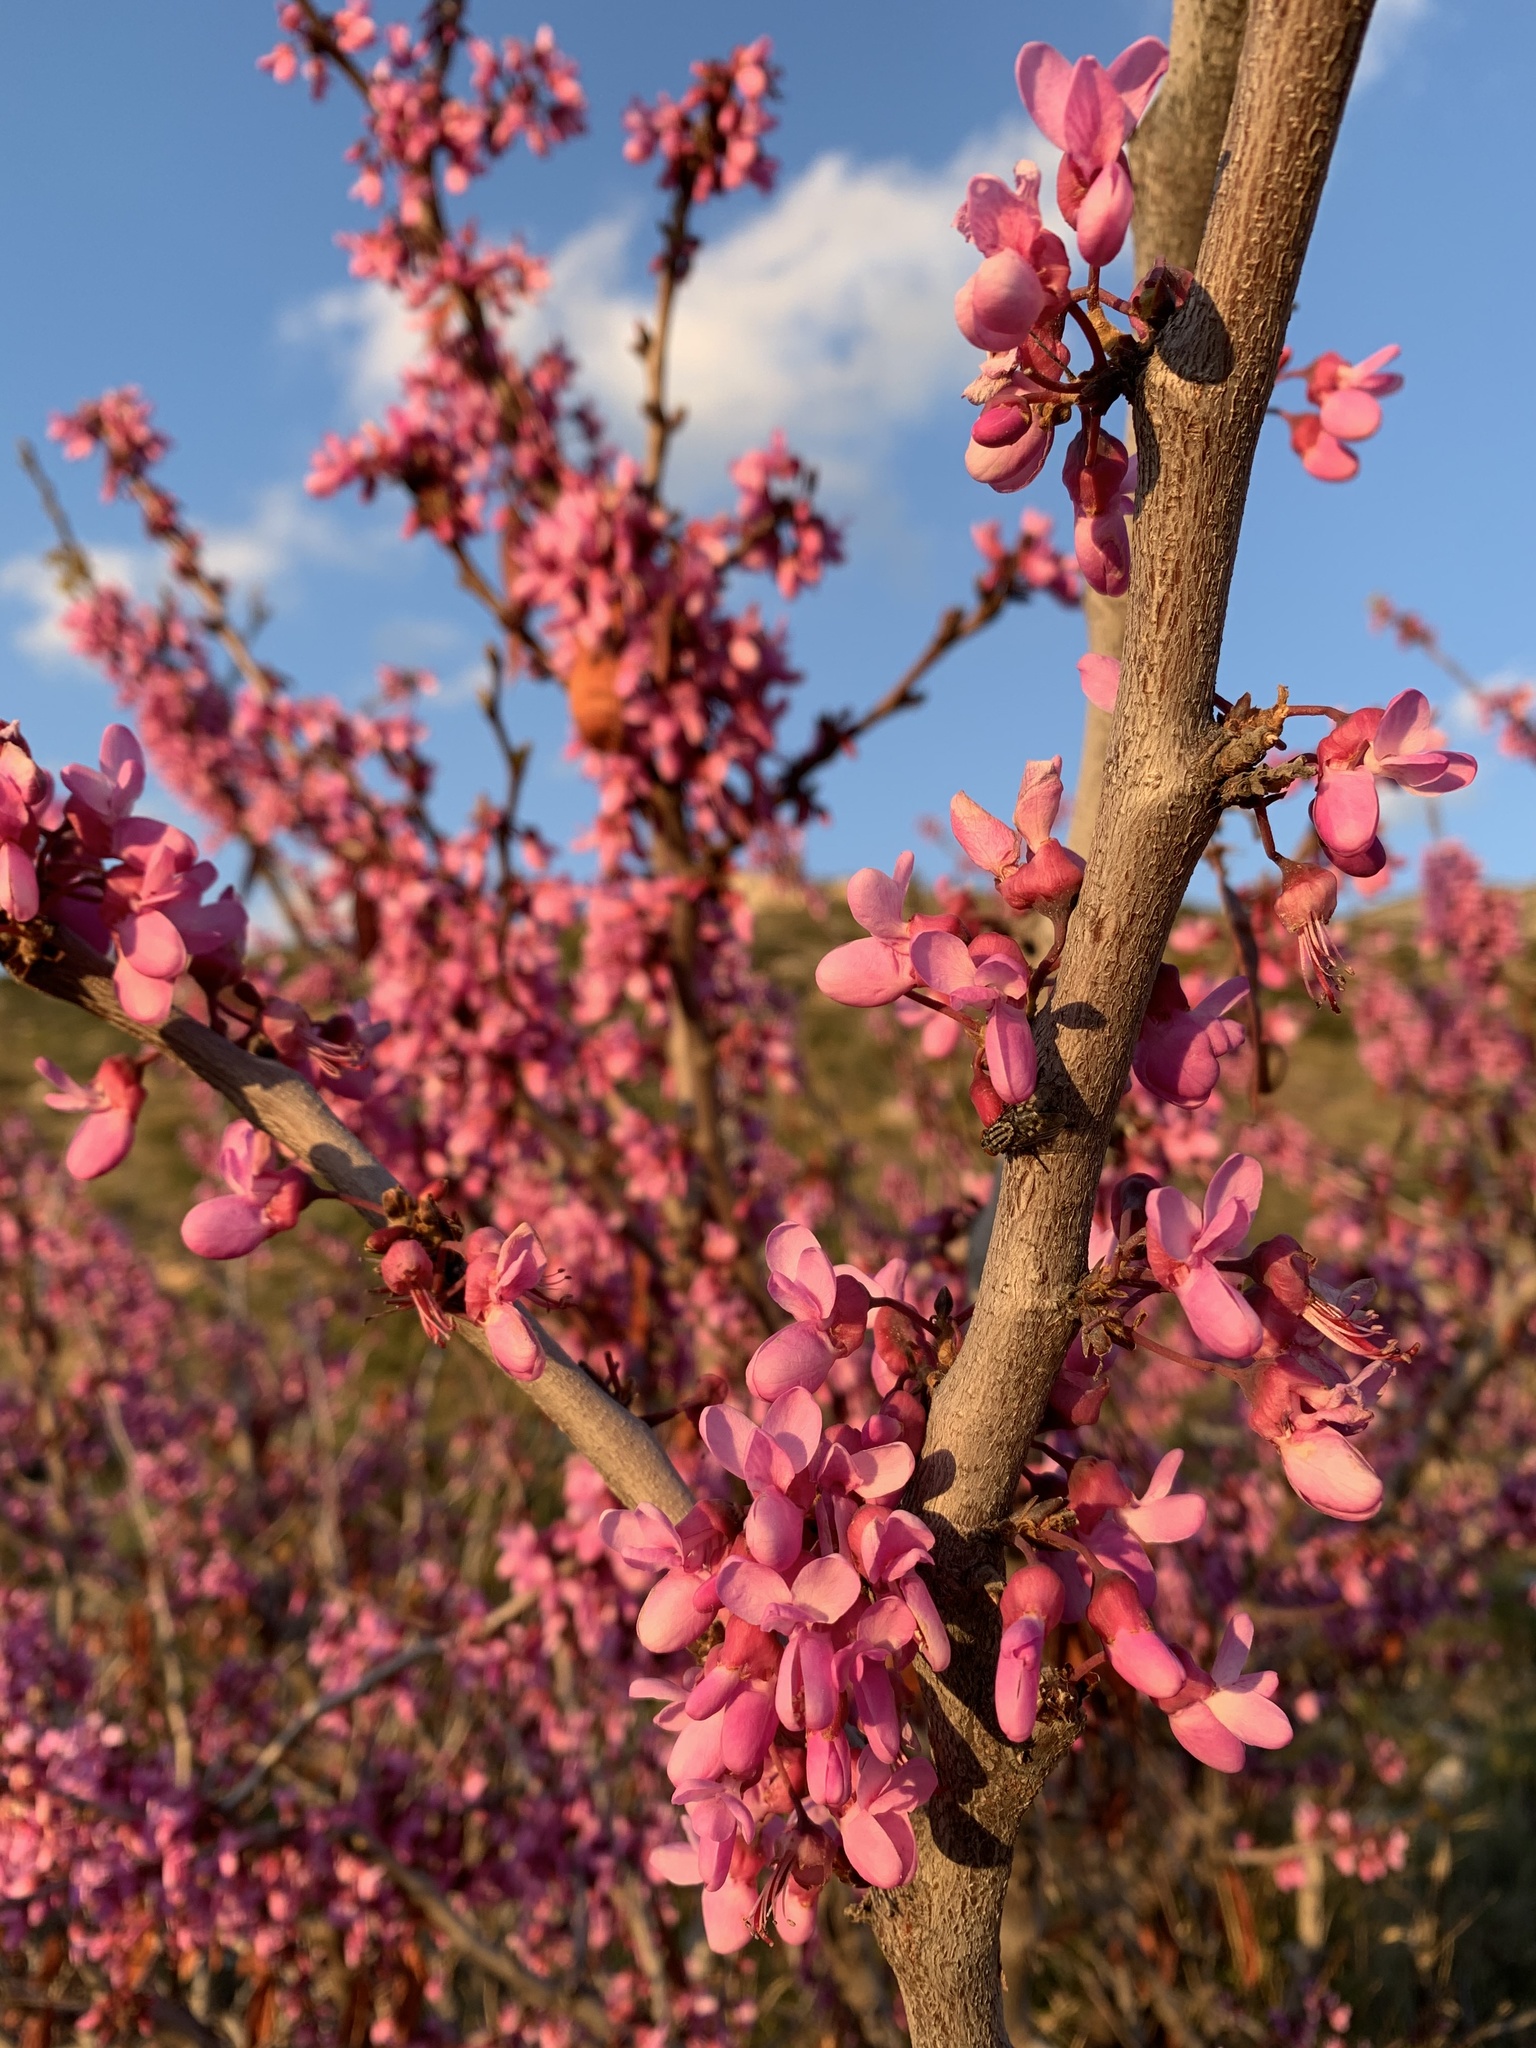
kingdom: Plantae
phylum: Tracheophyta
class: Magnoliopsida
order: Fabales
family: Fabaceae
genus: Cercis
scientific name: Cercis siliquastrum
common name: Judas tree
